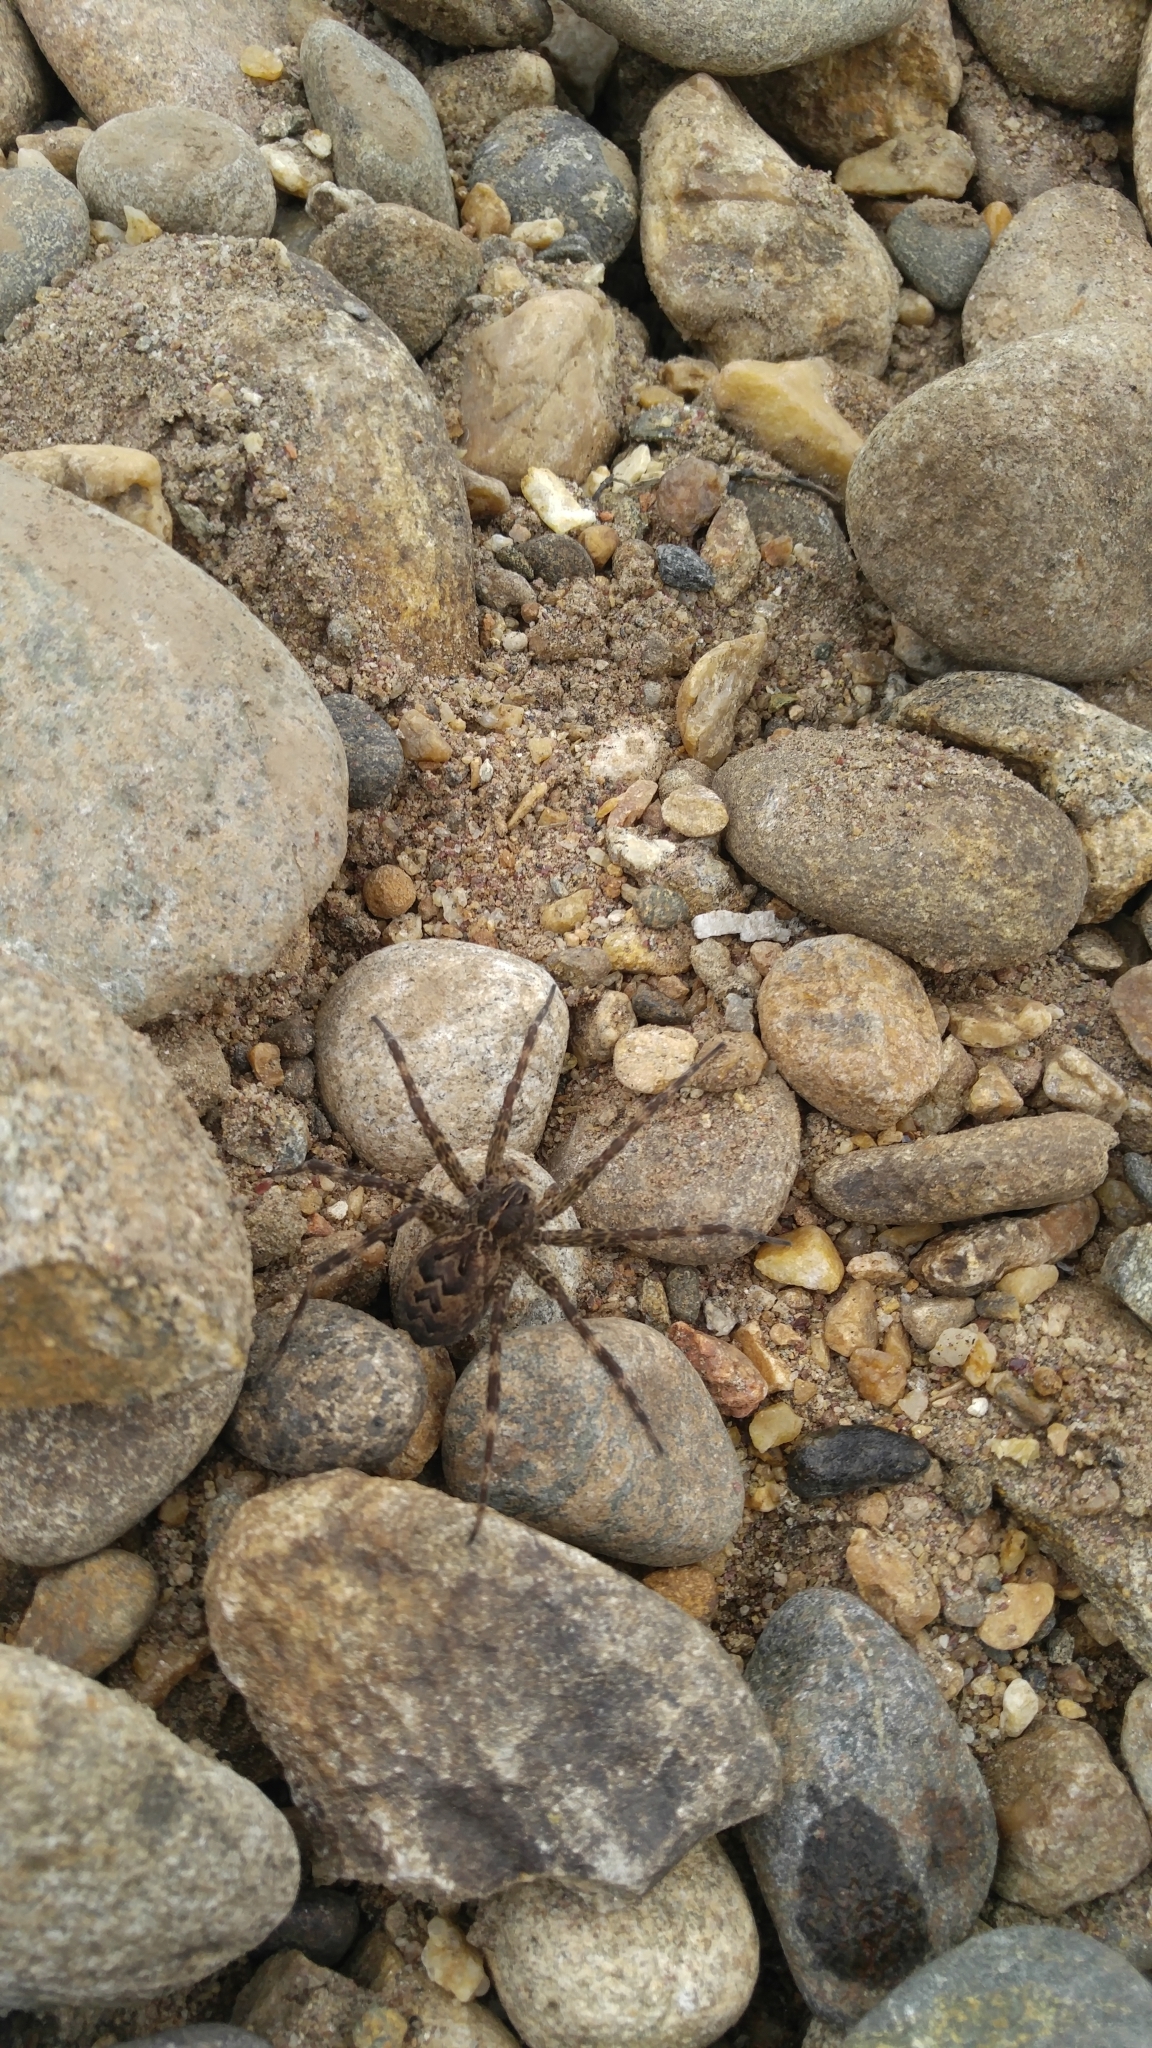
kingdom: Animalia
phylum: Arthropoda
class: Arachnida
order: Araneae
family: Pisauridae
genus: Dolomedes
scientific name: Dolomedes scriptus
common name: Striped fishing spider
